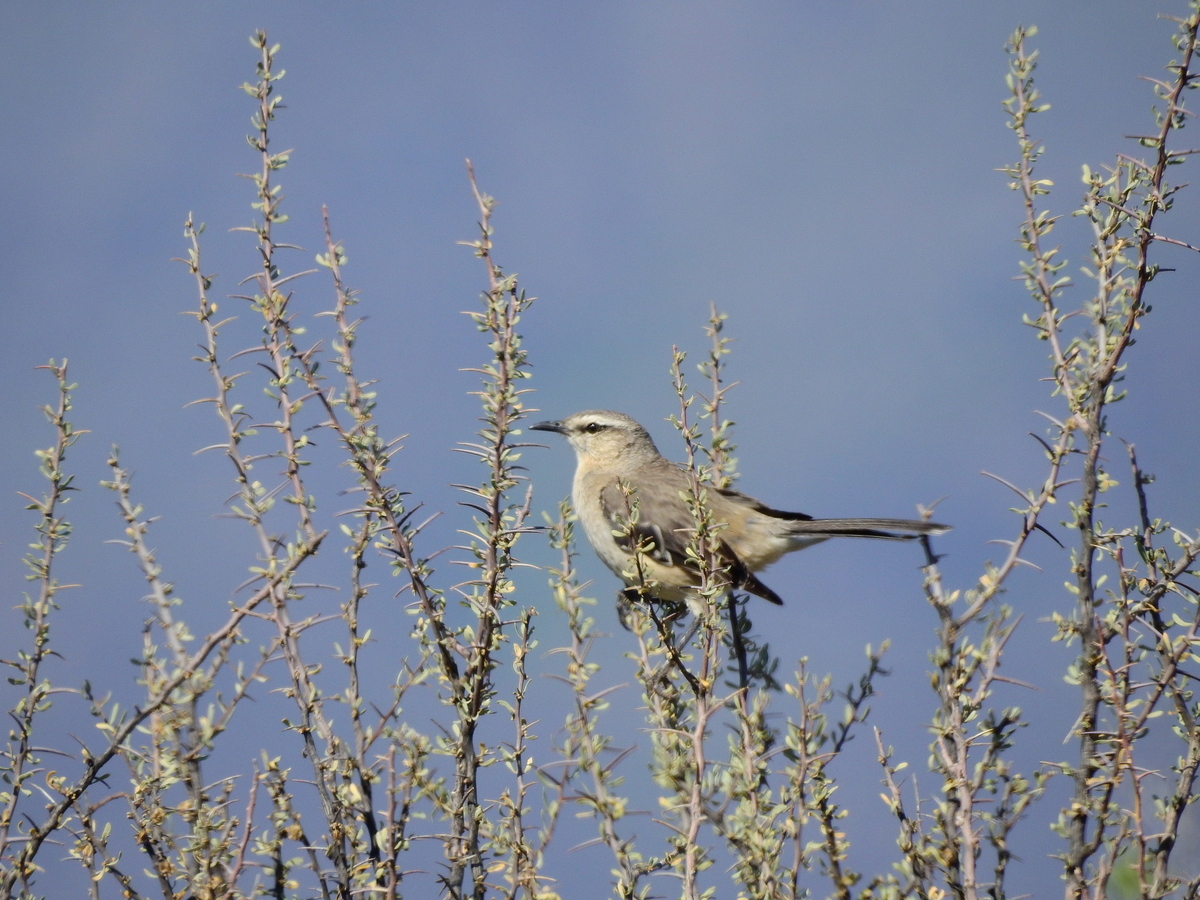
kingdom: Animalia
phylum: Chordata
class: Aves
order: Passeriformes
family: Mimidae
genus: Mimus
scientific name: Mimus patagonicus
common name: Patagonian mockingbird
